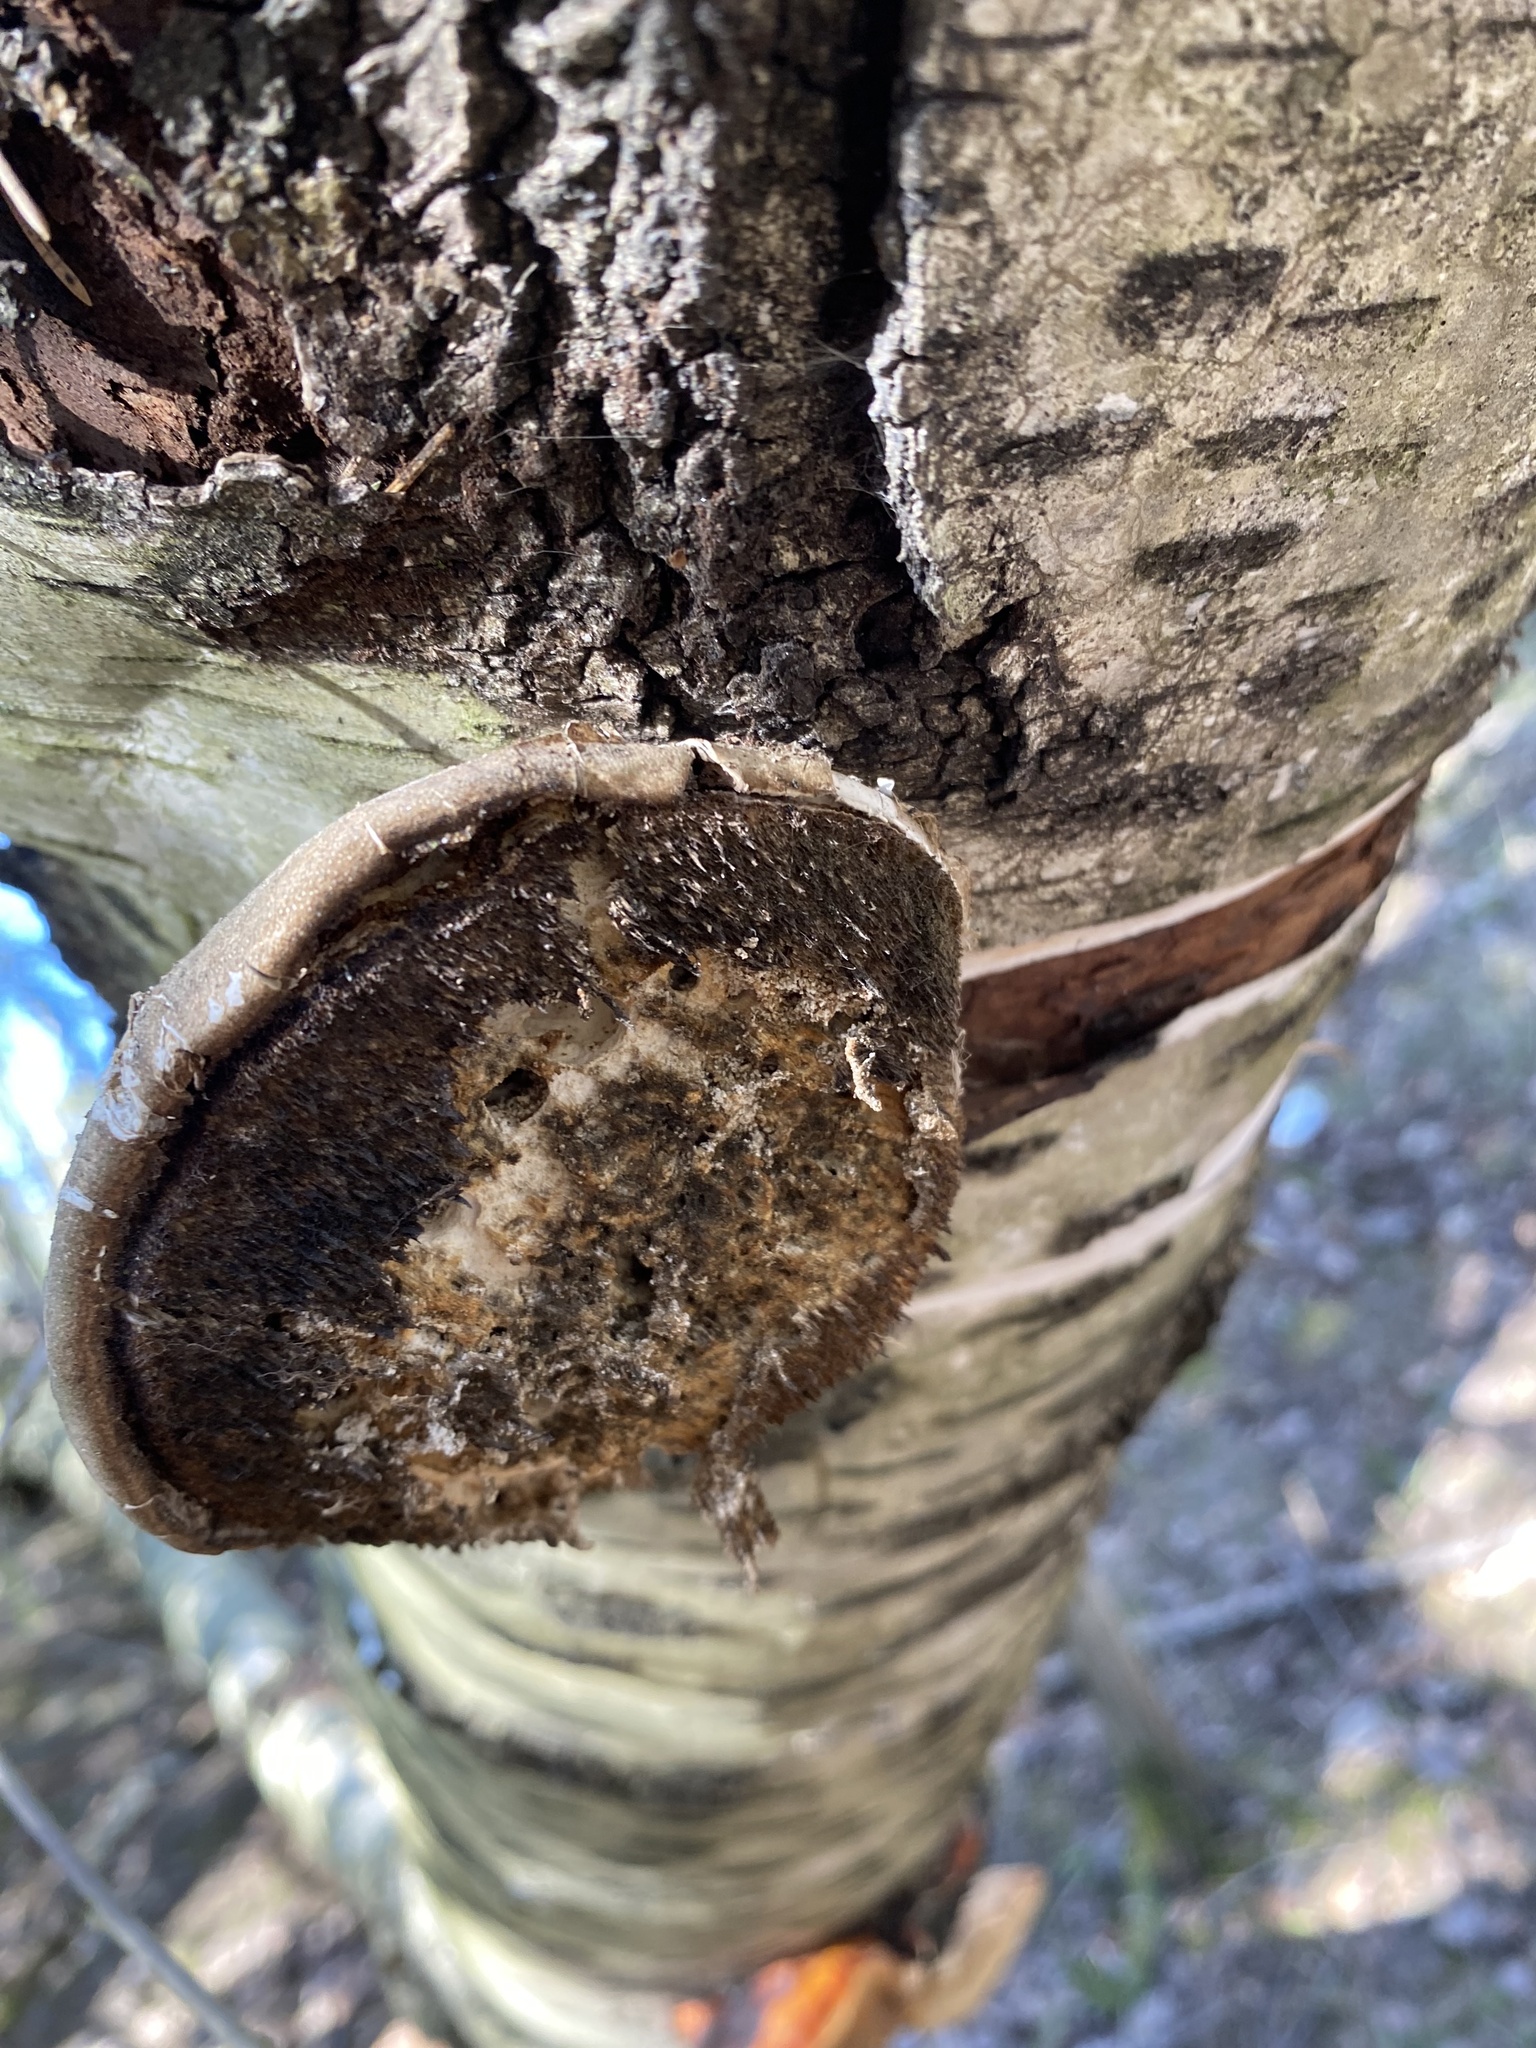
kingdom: Fungi
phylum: Basidiomycota
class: Agaricomycetes
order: Polyporales
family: Fomitopsidaceae
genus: Fomitopsis
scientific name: Fomitopsis betulina
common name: Birch polypore
